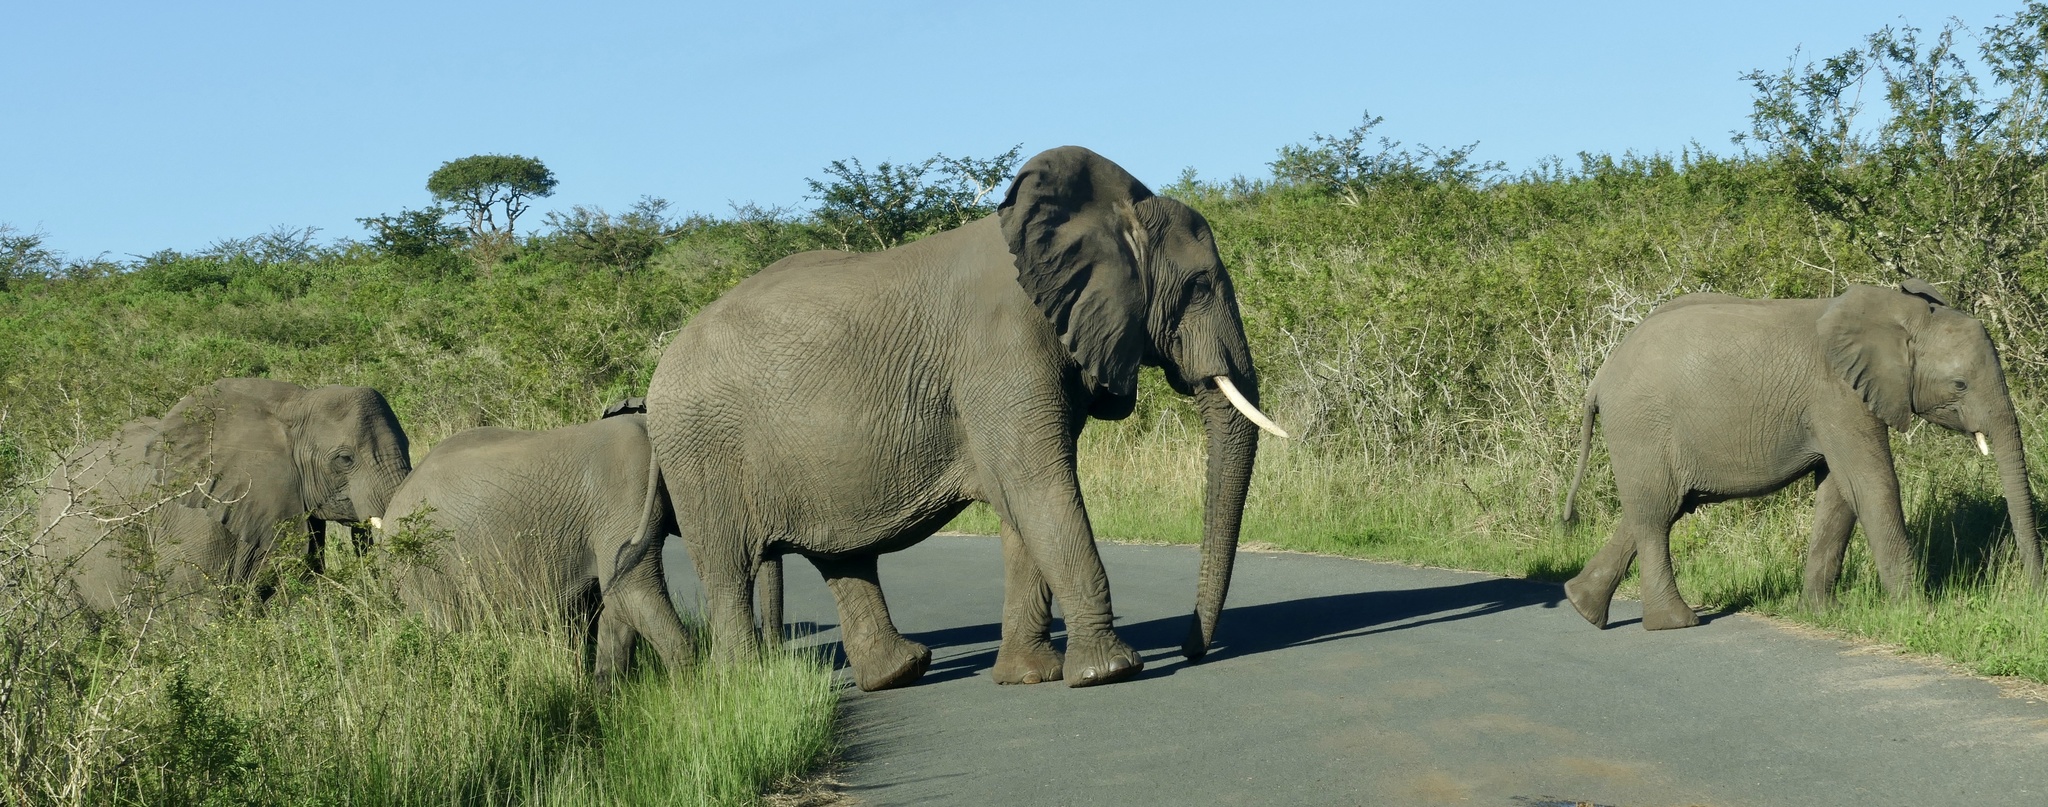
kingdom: Animalia
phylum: Chordata
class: Mammalia
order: Proboscidea
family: Elephantidae
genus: Loxodonta
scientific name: Loxodonta africana
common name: African elephant
